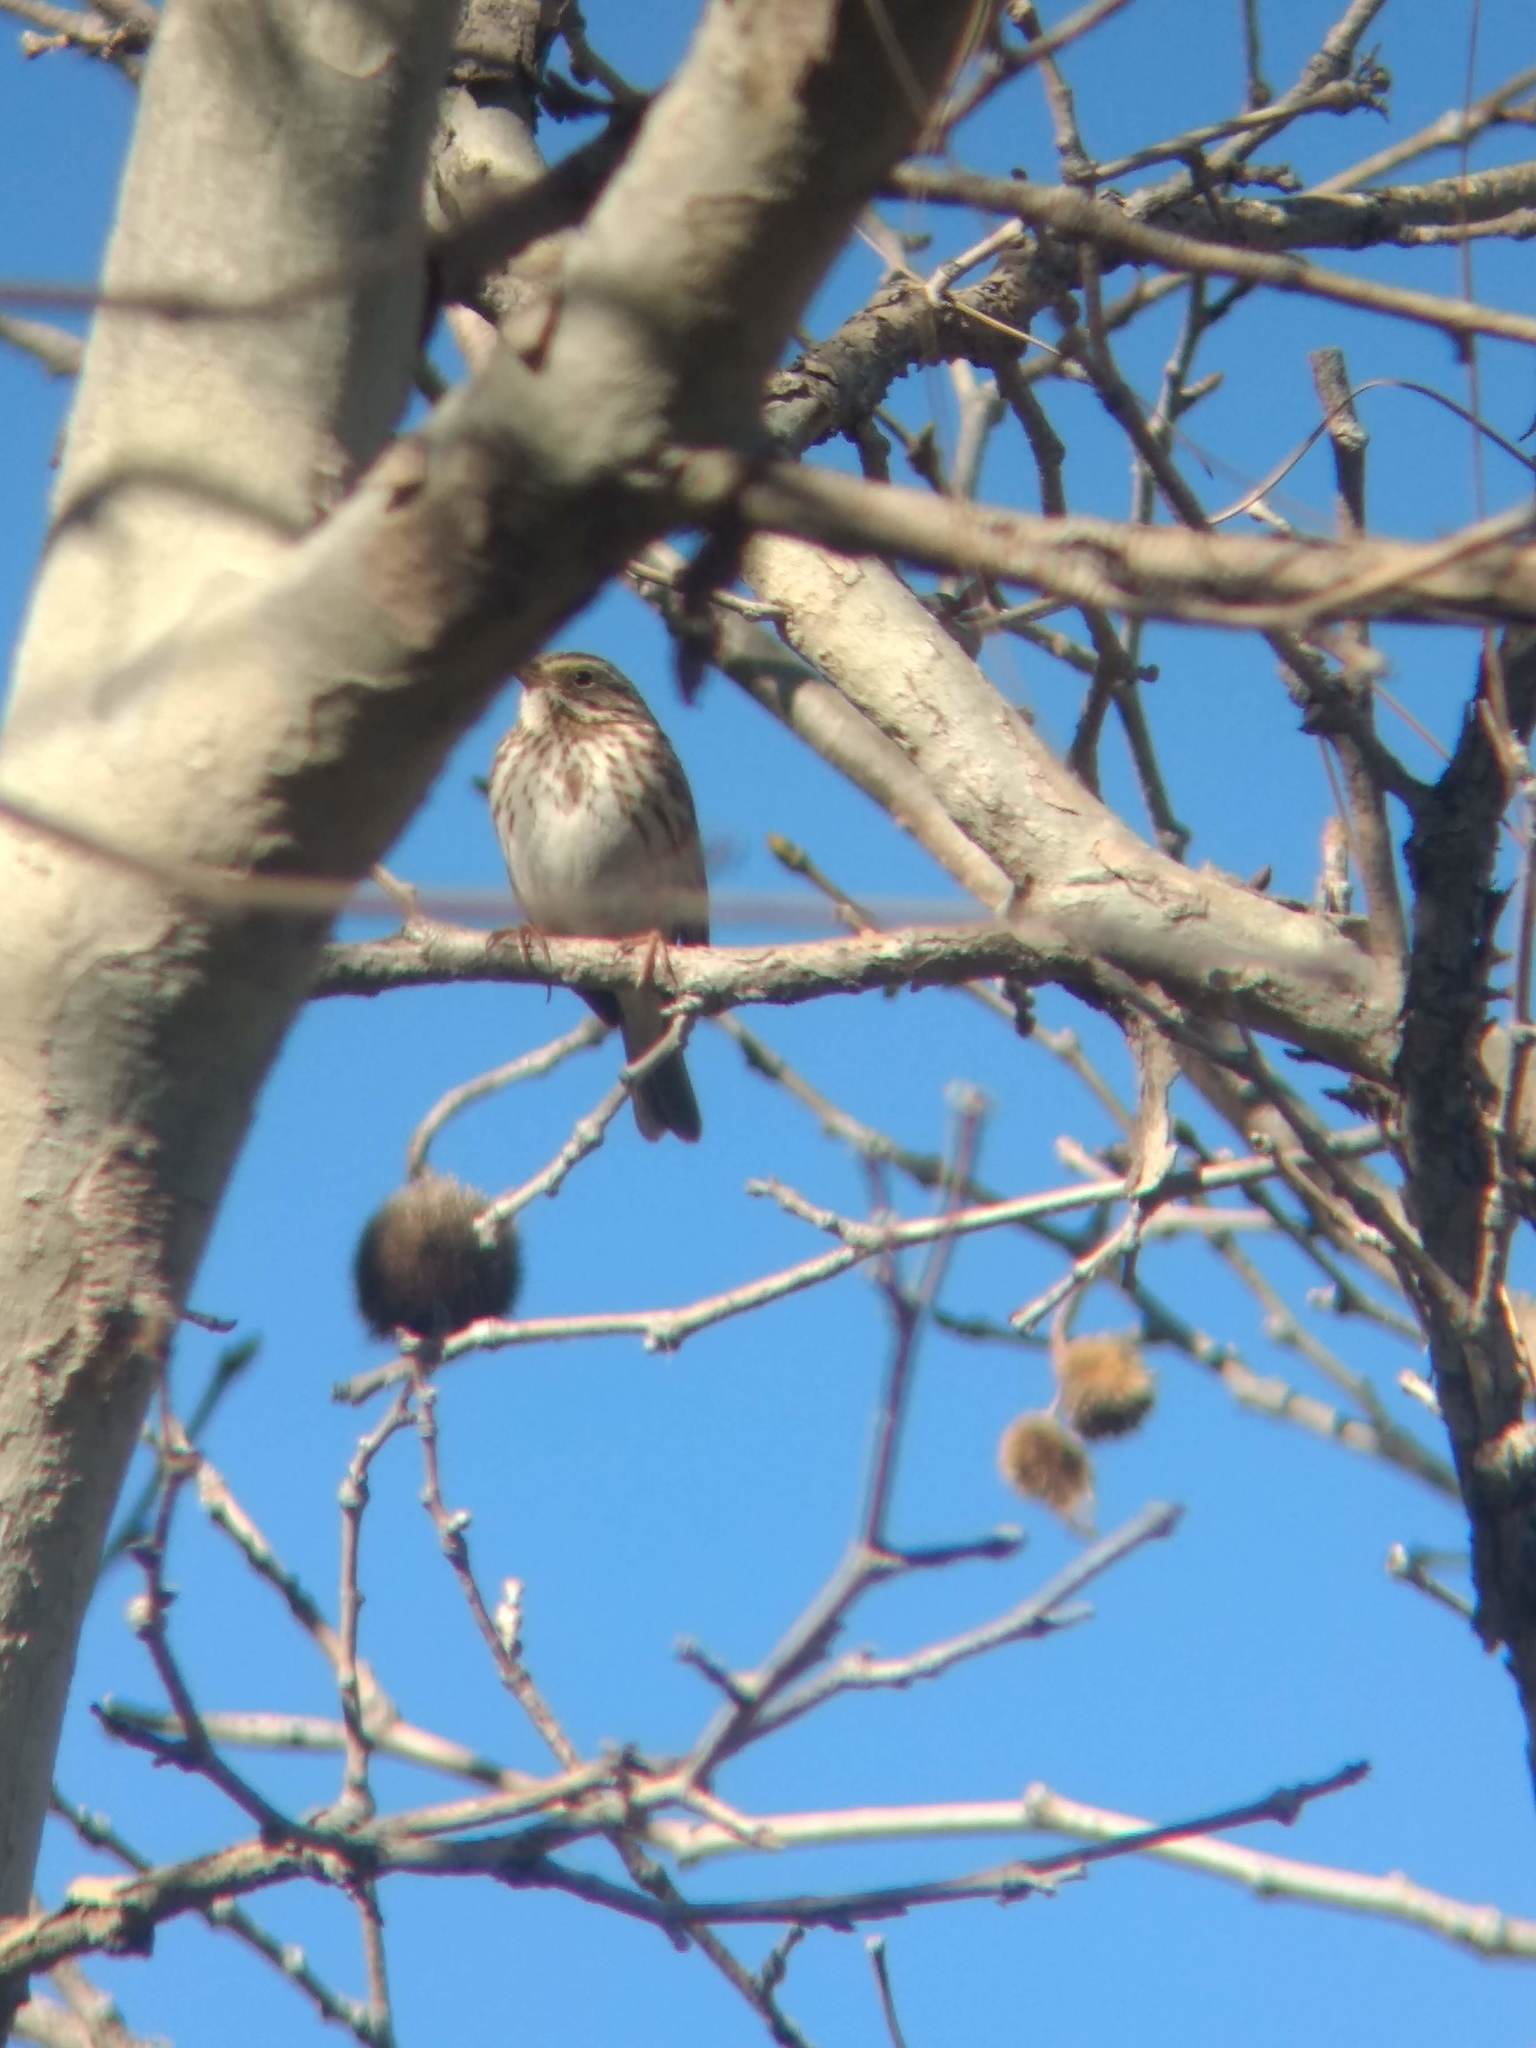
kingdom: Animalia
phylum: Chordata
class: Aves
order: Passeriformes
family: Passerellidae
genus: Passerculus
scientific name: Passerculus sandwichensis
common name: Savannah sparrow
